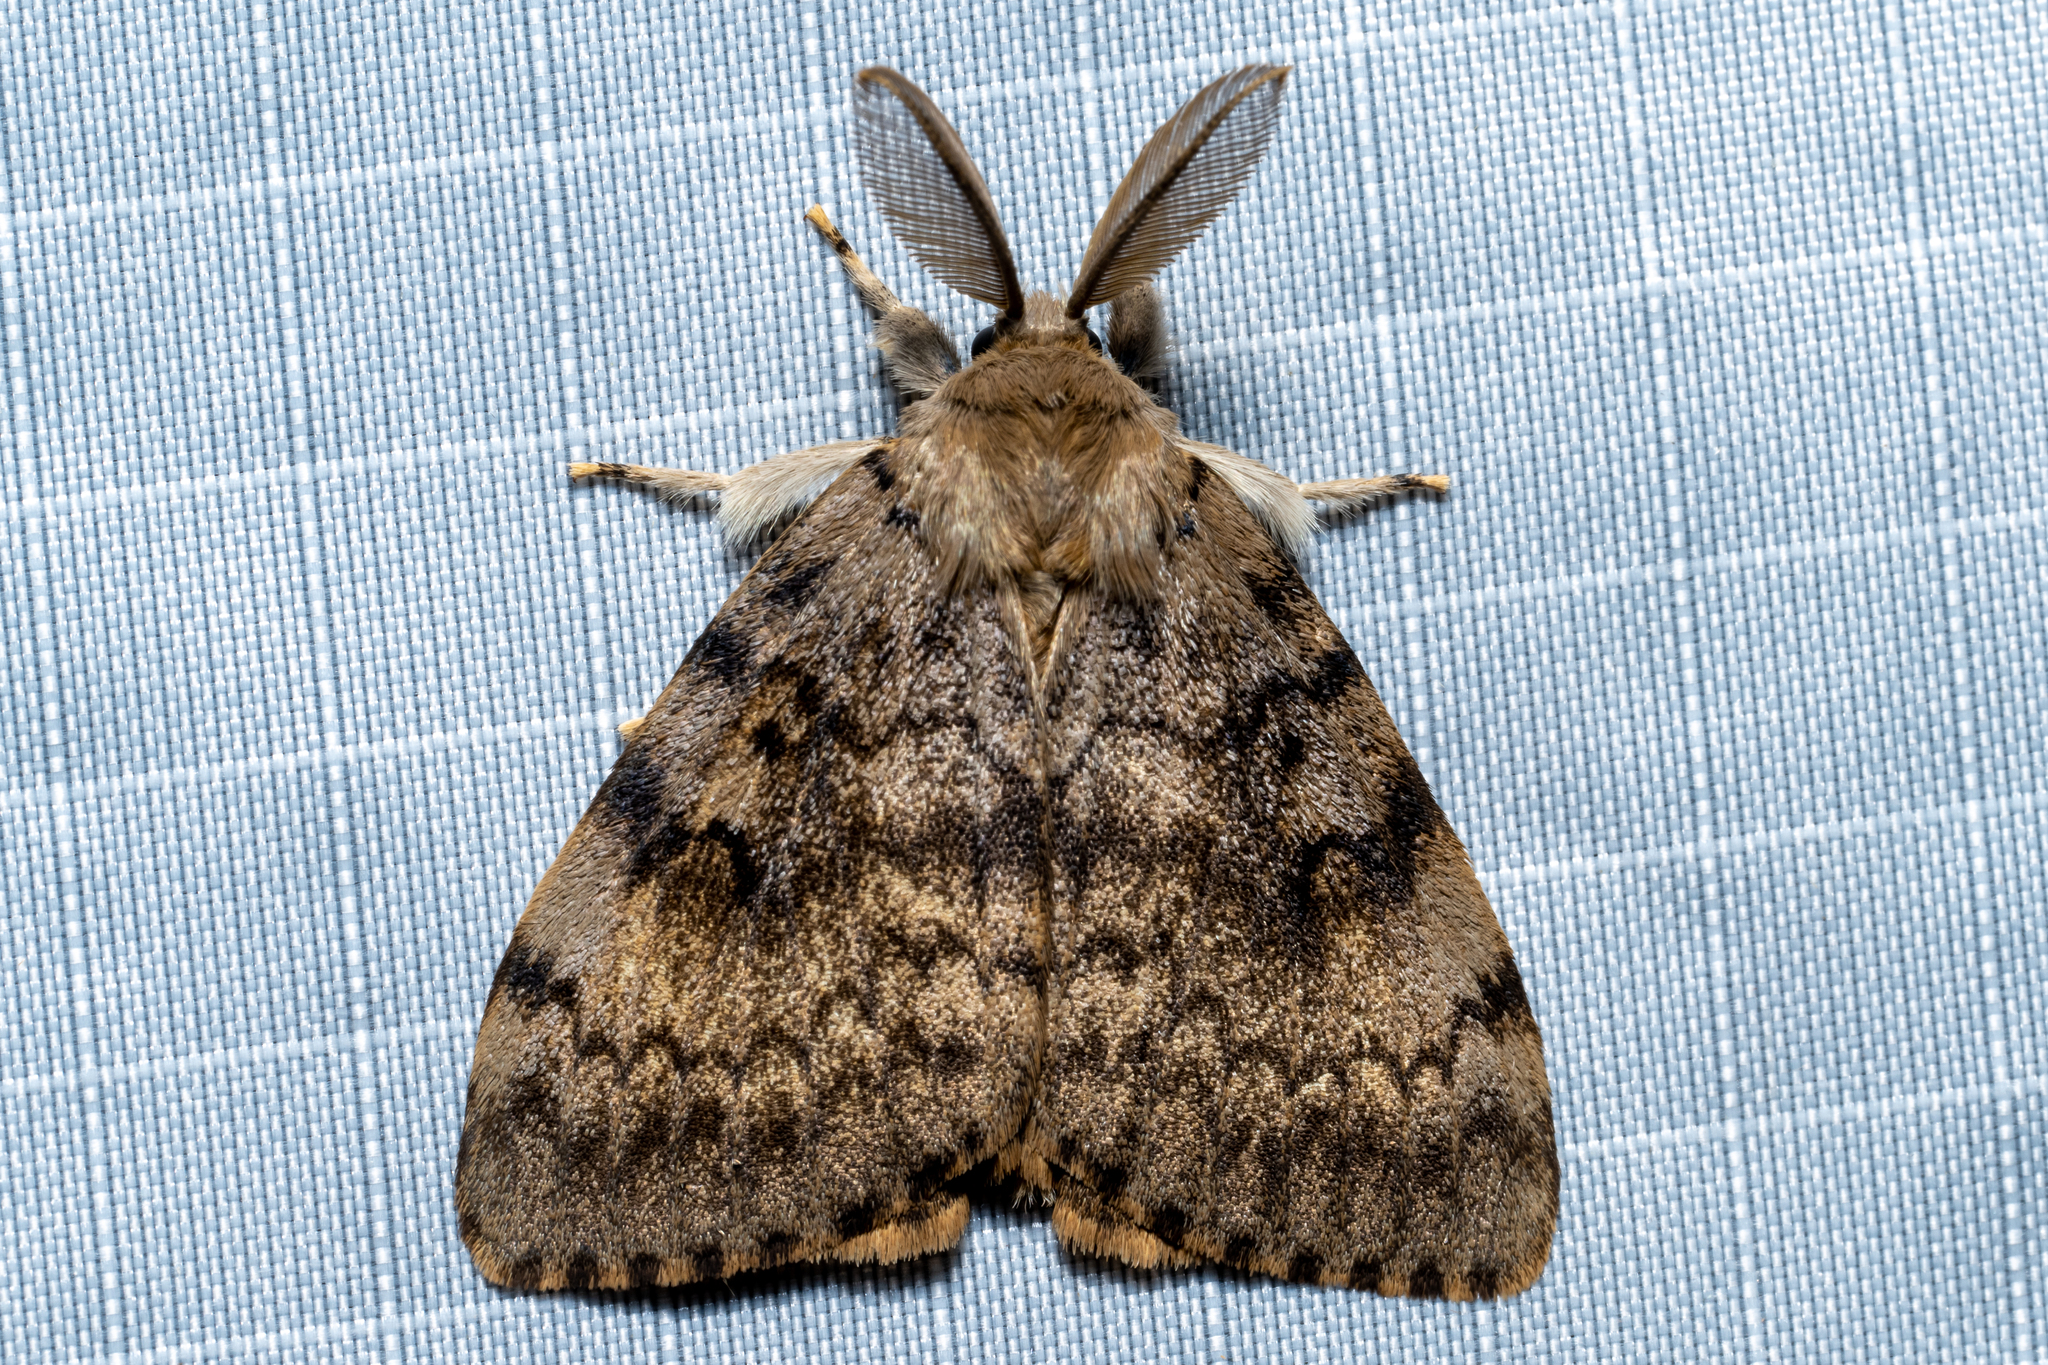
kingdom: Animalia
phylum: Arthropoda
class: Insecta
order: Lepidoptera
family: Erebidae
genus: Lymantria
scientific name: Lymantria dispar
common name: Gypsy moth
